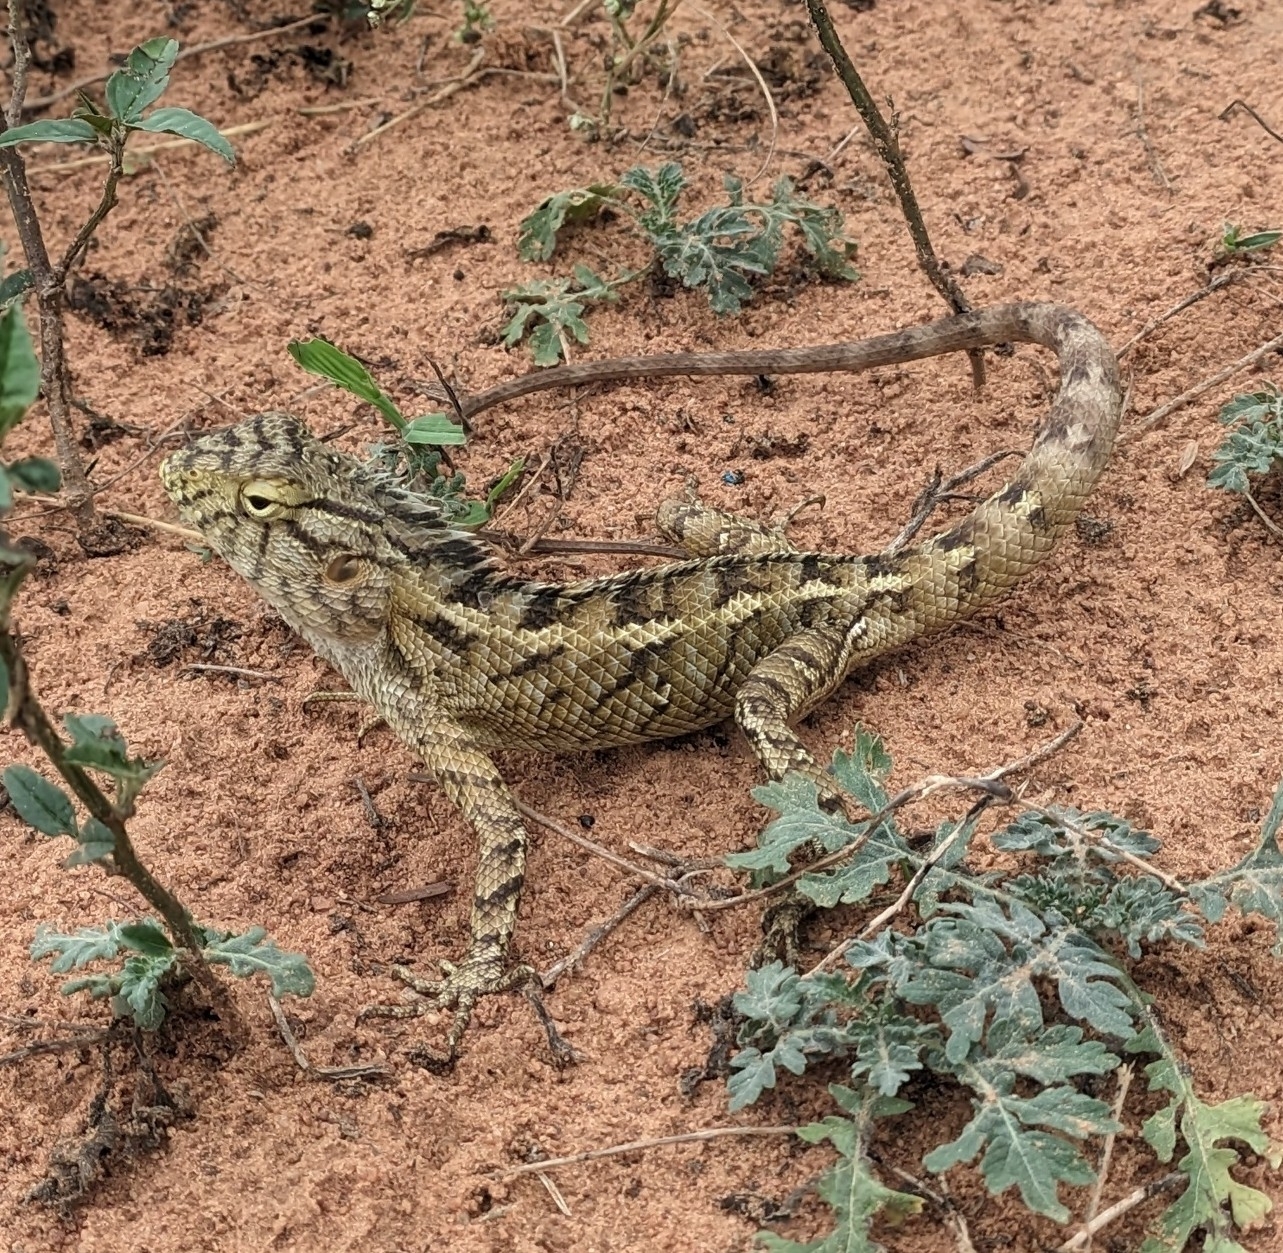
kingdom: Animalia
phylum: Chordata
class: Squamata
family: Agamidae
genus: Calotes
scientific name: Calotes versicolor
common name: Oriental garden lizard
